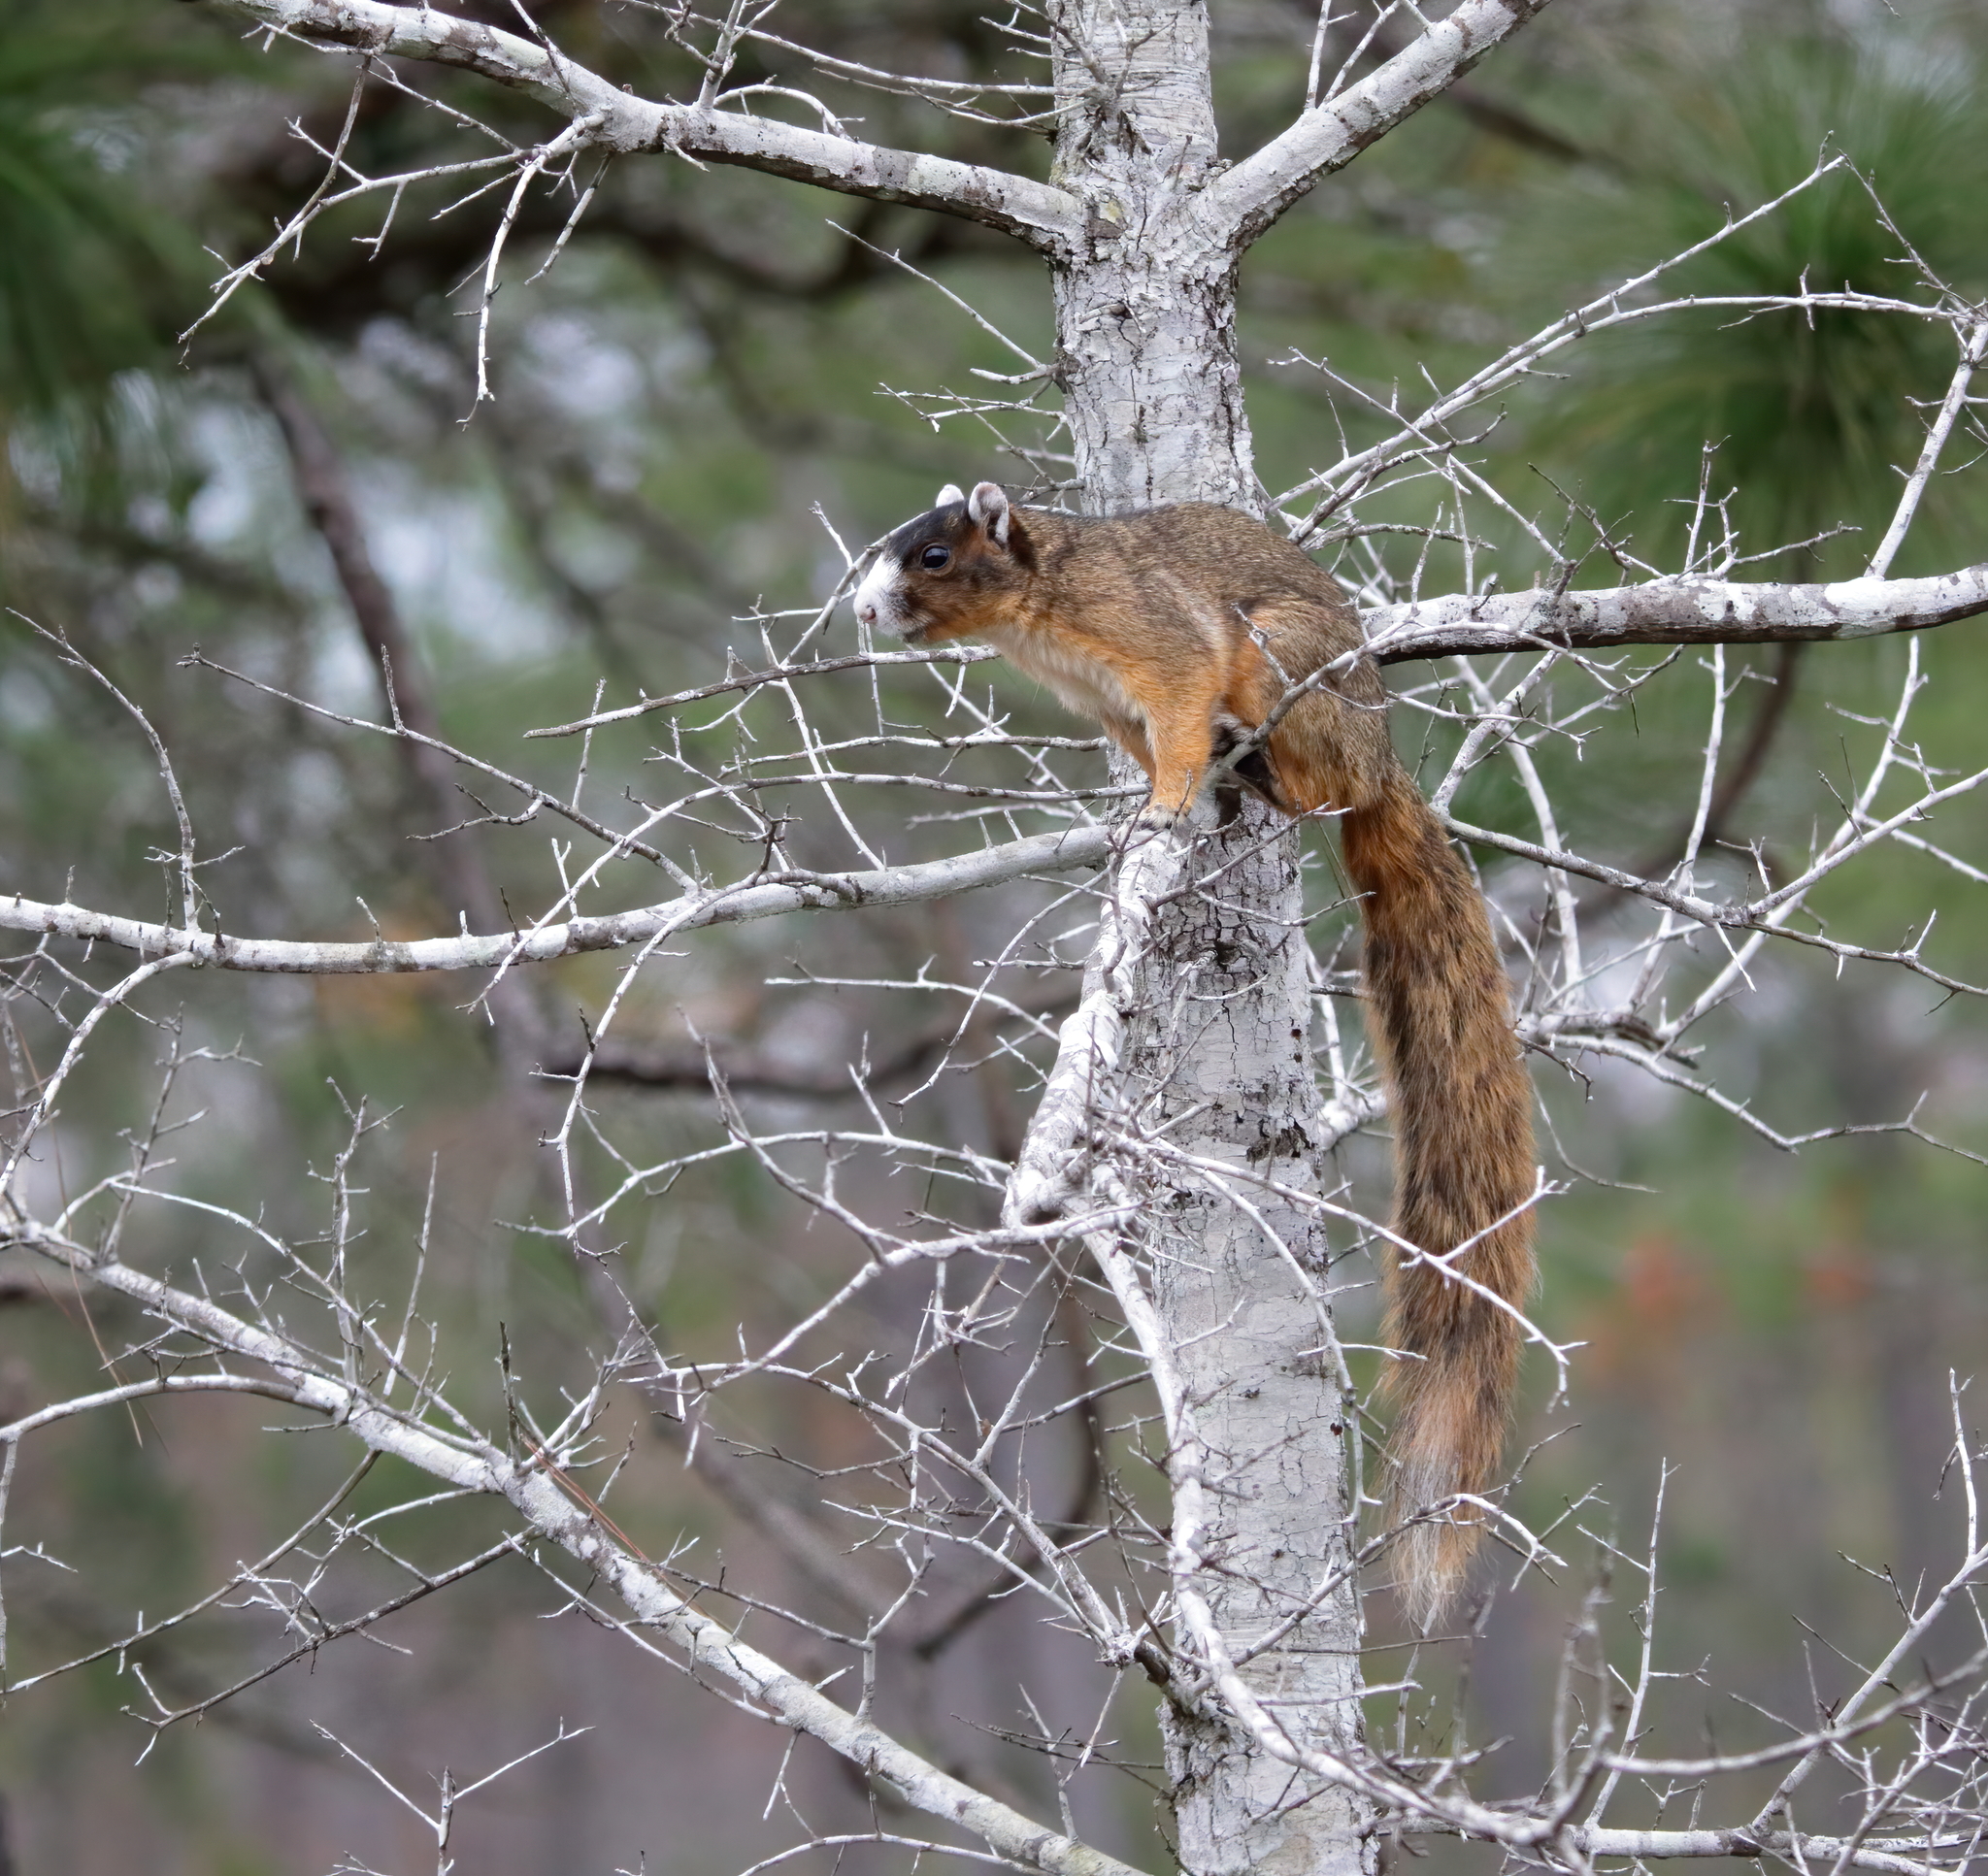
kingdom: Animalia
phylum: Chordata
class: Mammalia
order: Rodentia
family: Sciuridae
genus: Sciurus
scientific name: Sciurus niger
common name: Fox squirrel
